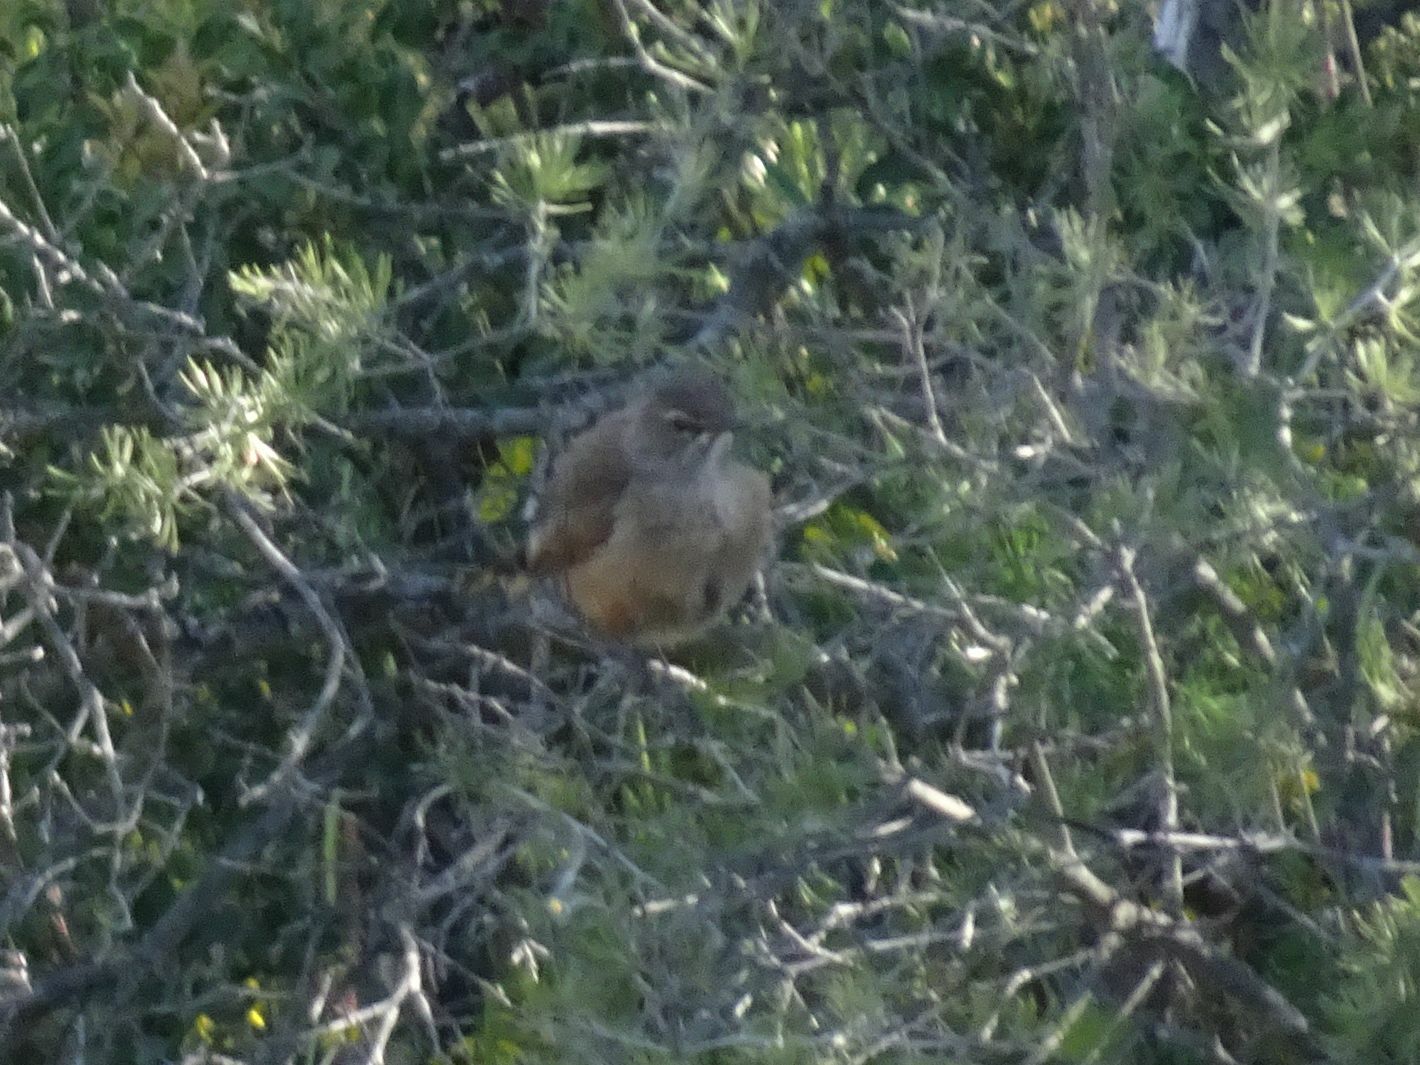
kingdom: Animalia
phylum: Chordata
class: Aves
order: Passeriformes
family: Muscicapidae
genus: Erythropygia
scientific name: Erythropygia coryphoeus
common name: Karoo scrub robin
